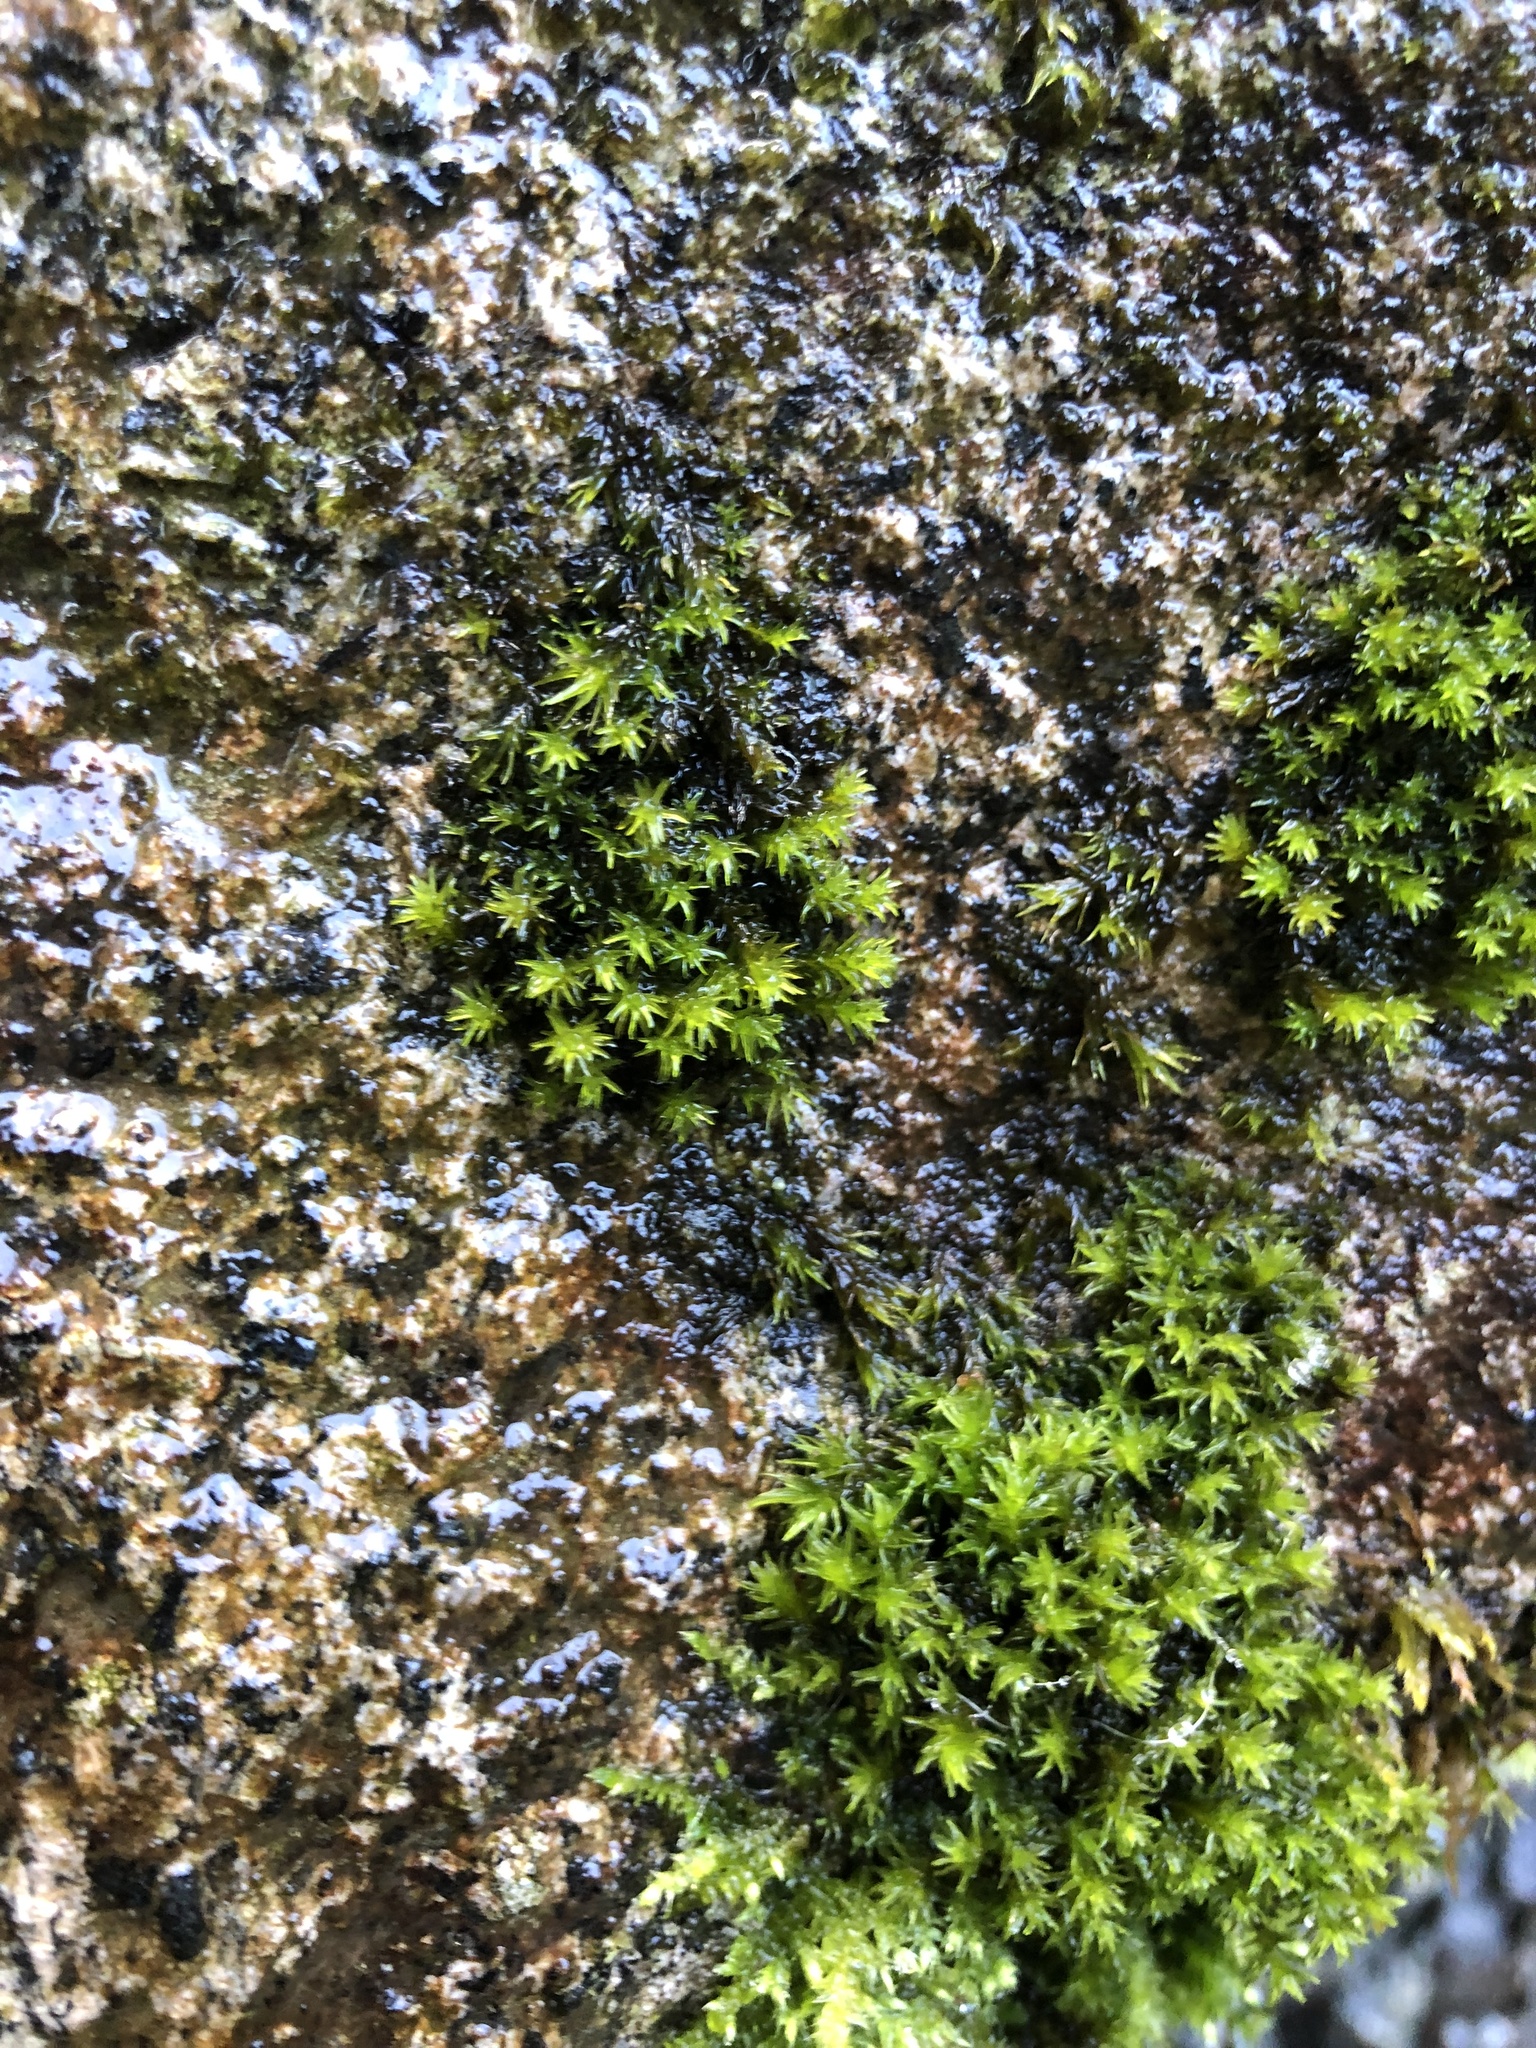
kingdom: Plantae
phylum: Bryophyta
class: Bryopsida
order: Grimmiales
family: Grimmiaceae
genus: Codriophorus
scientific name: Codriophorus acicularis
